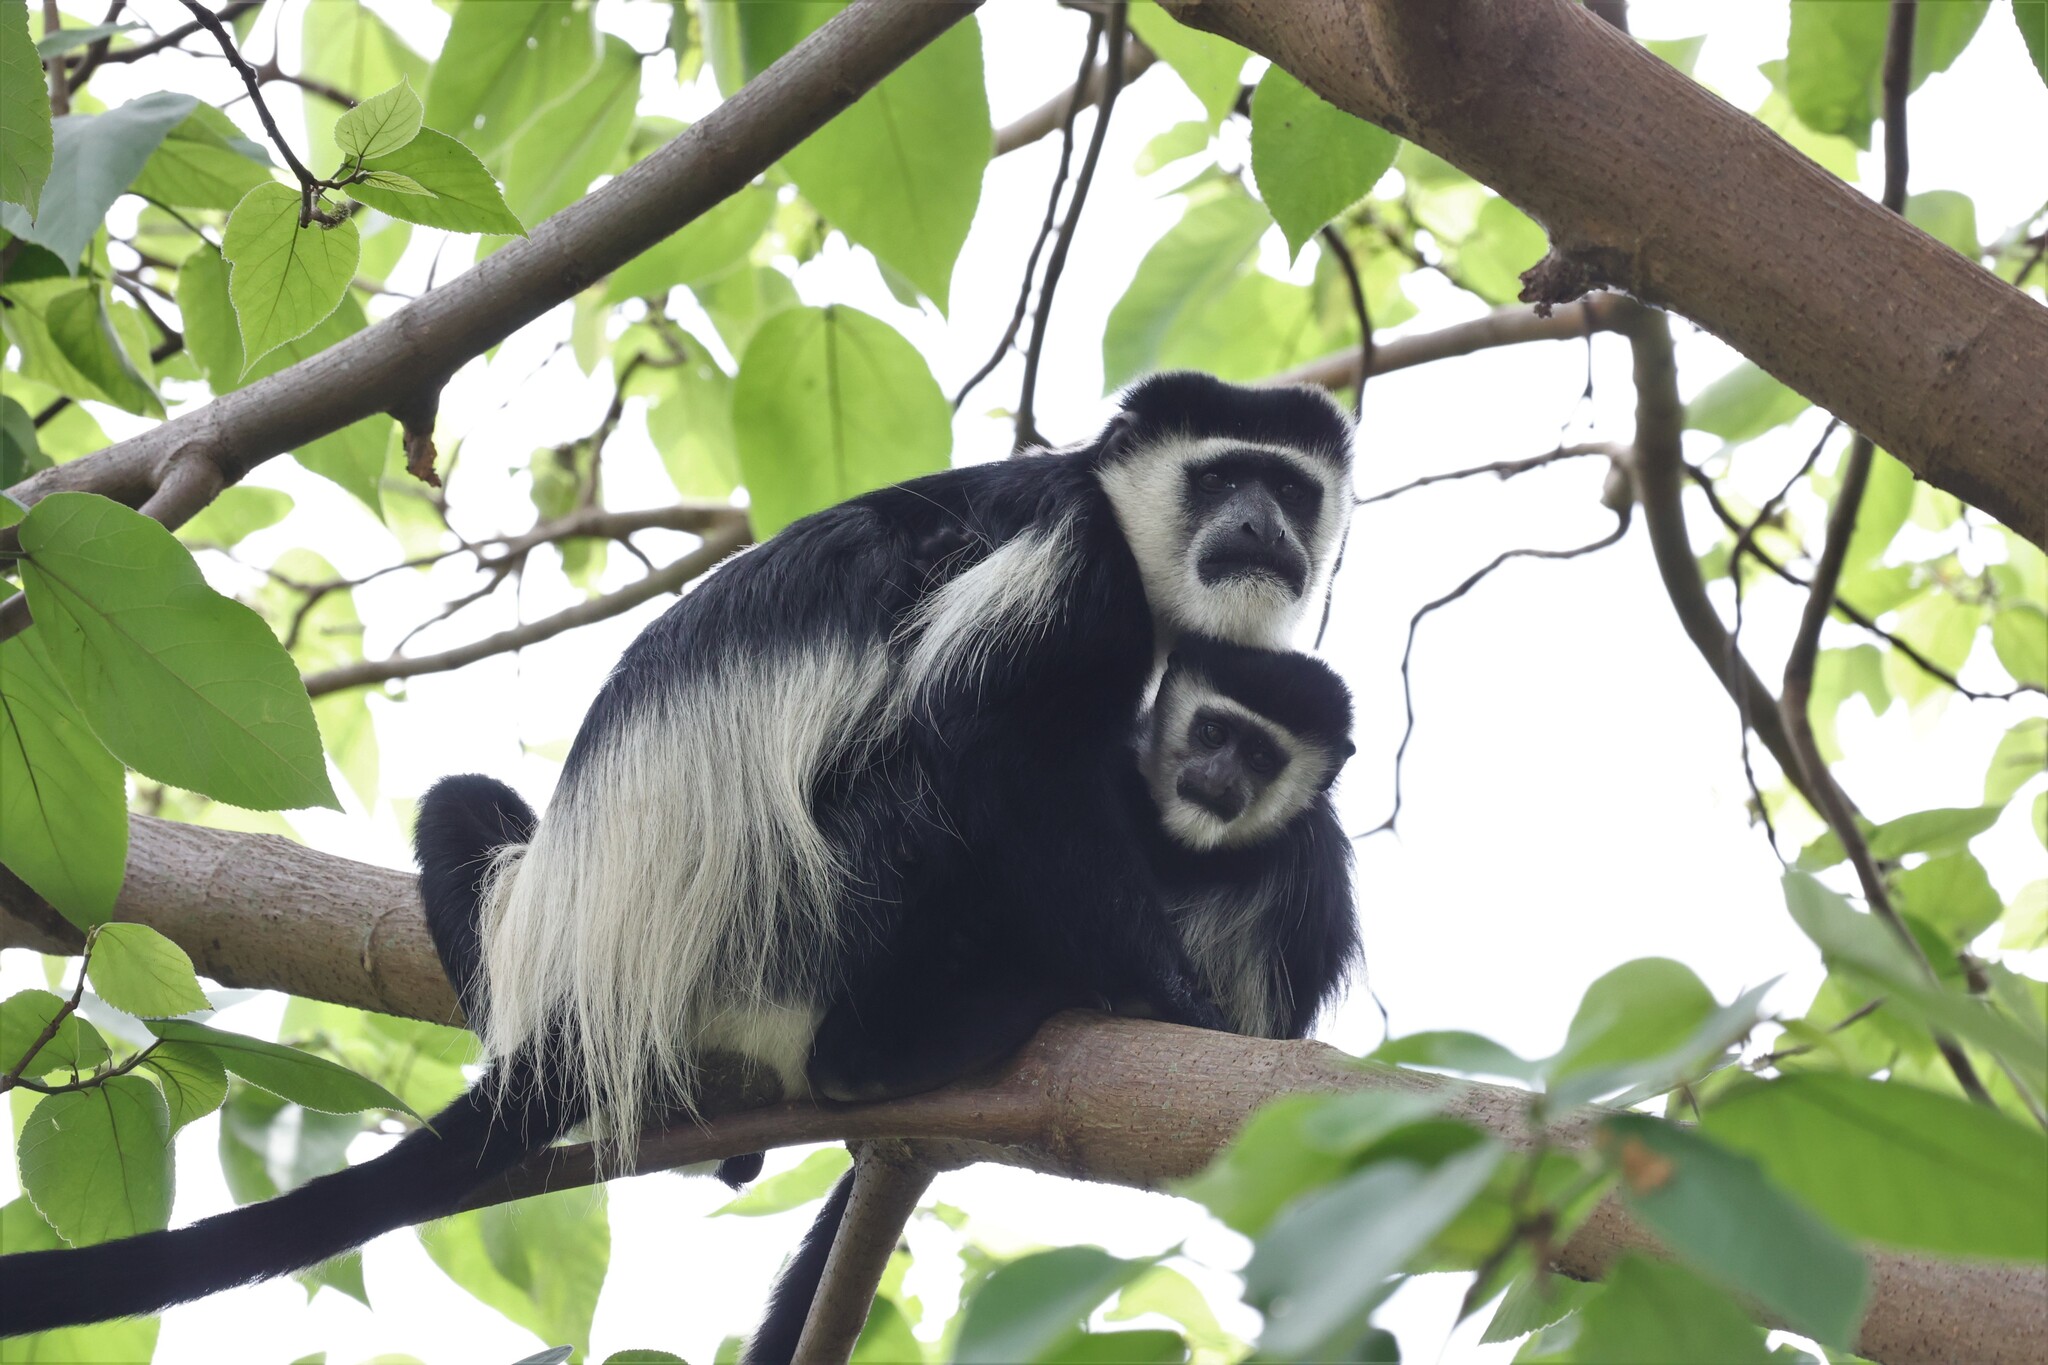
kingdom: Animalia
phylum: Chordata
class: Mammalia
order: Primates
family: Cercopithecidae
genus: Colobus
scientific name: Colobus guereza
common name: Mantled guereza
